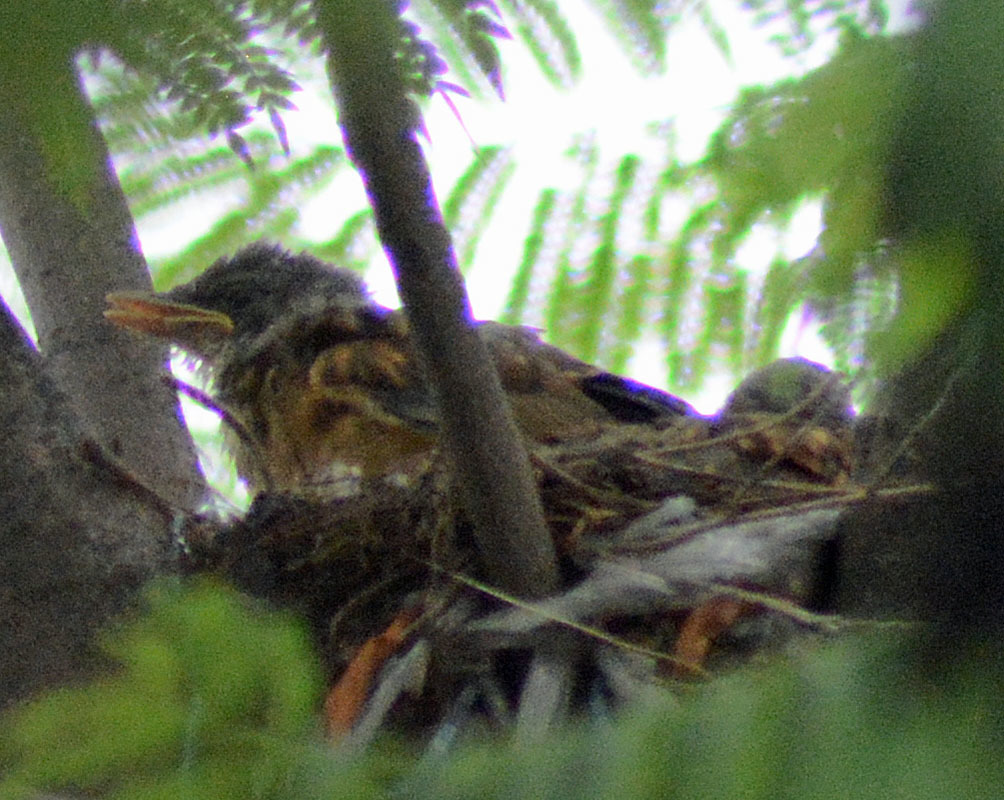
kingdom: Animalia
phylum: Chordata
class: Aves
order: Passeriformes
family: Turdidae
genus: Turdus
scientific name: Turdus rufopalliatus
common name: Rufous-backed robin
